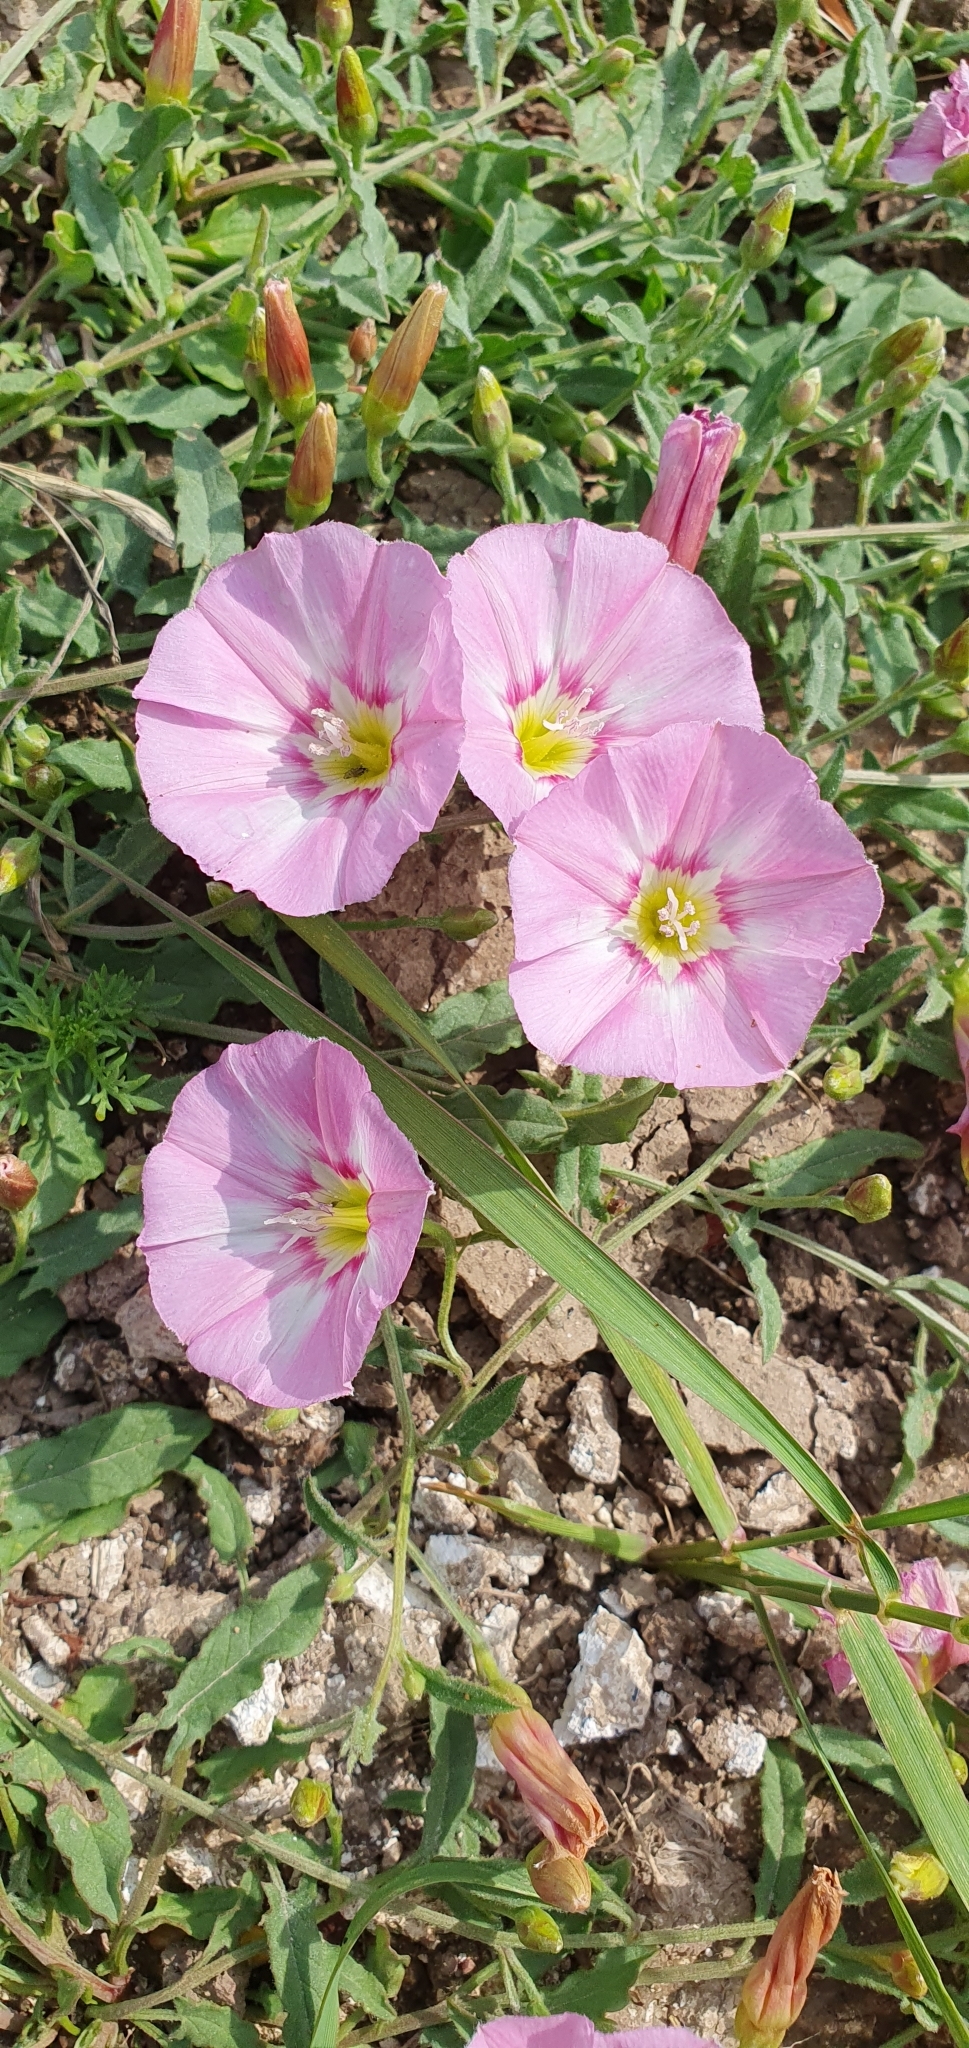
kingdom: Plantae
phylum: Tracheophyta
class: Magnoliopsida
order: Solanales
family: Convolvulaceae
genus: Convolvulus
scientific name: Convolvulus arvensis
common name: Field bindweed
